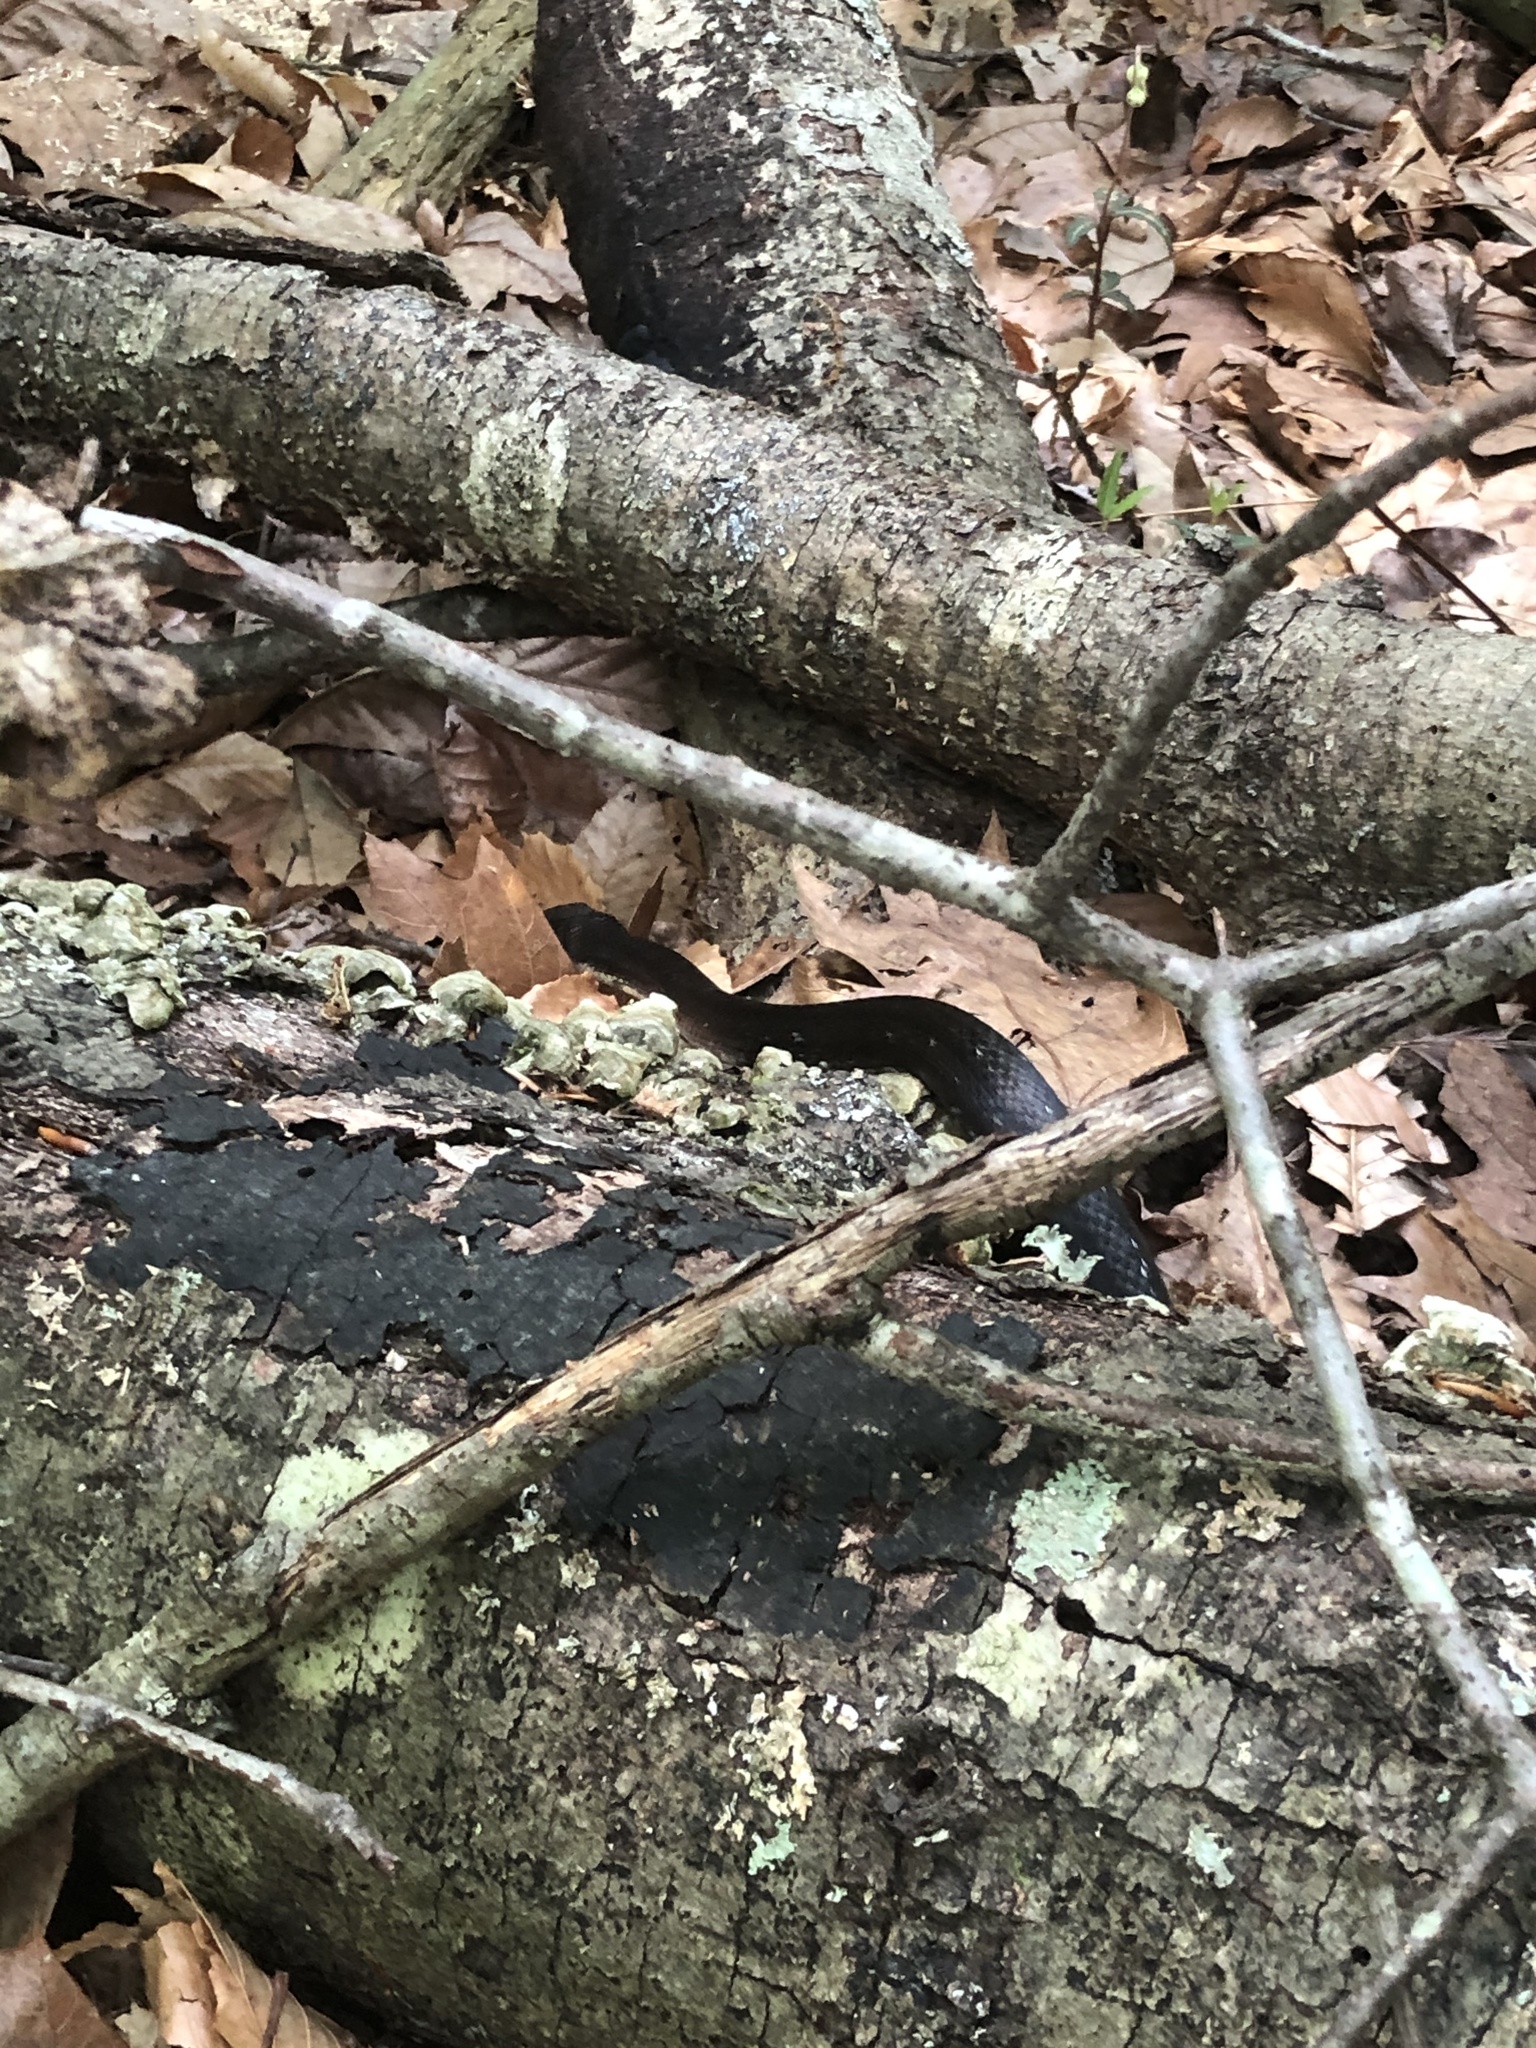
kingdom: Animalia
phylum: Chordata
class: Squamata
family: Colubridae
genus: Pantherophis
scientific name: Pantherophis alleghaniensis
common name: Eastern rat snake
